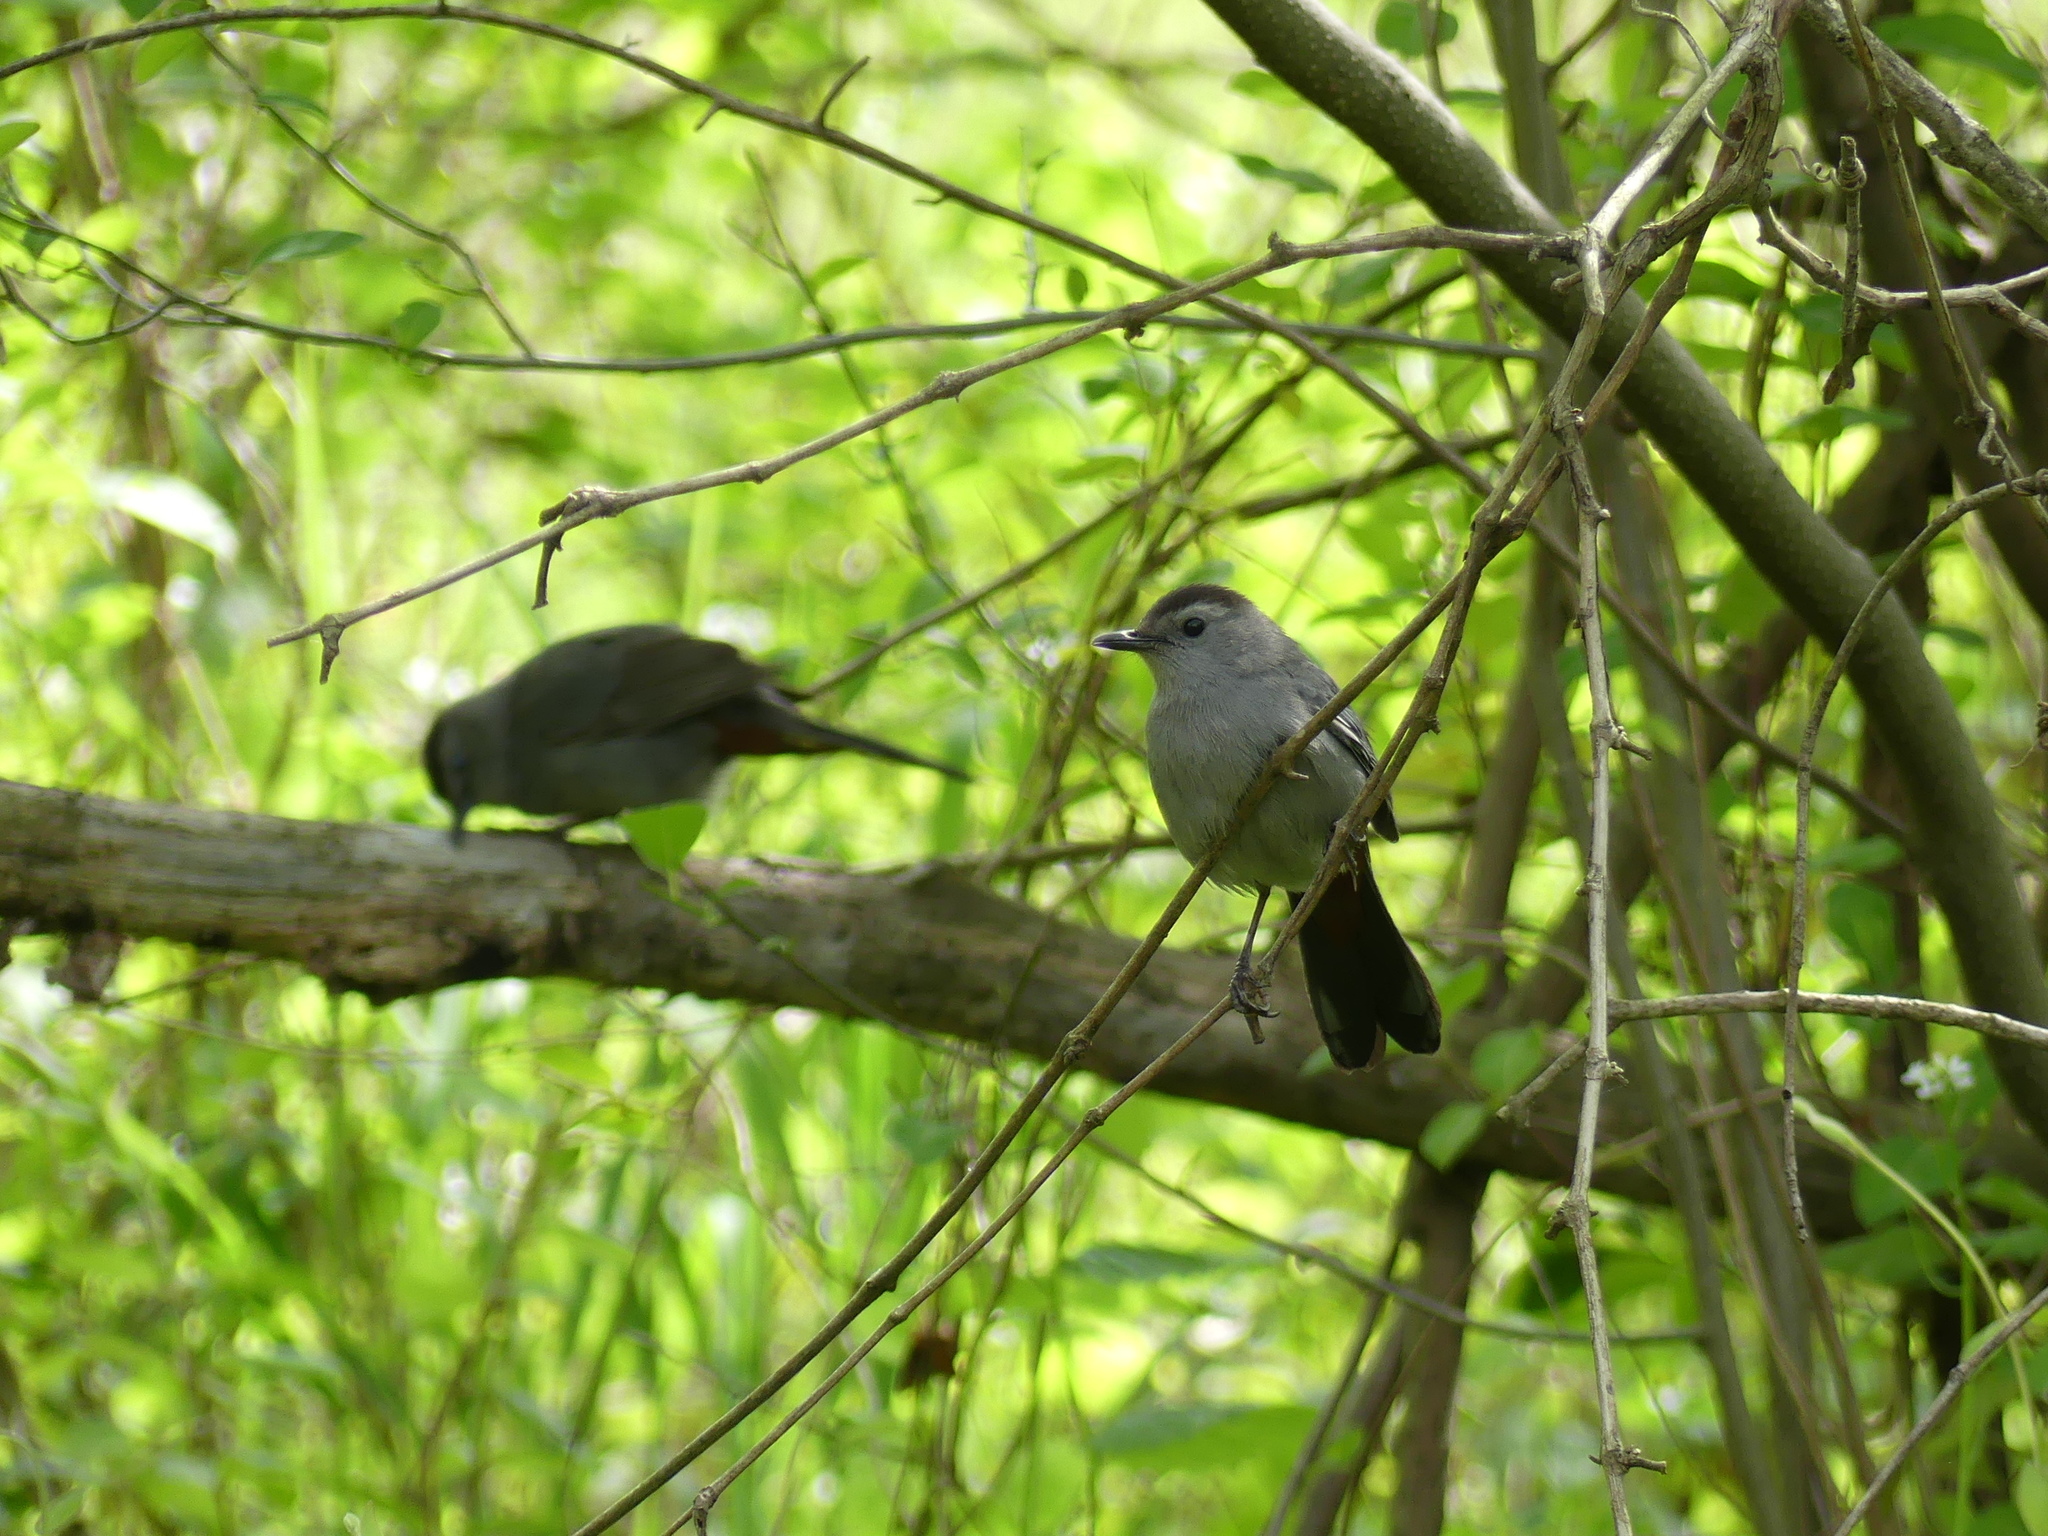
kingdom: Animalia
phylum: Chordata
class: Aves
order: Passeriformes
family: Mimidae
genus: Dumetella
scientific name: Dumetella carolinensis
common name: Gray catbird
